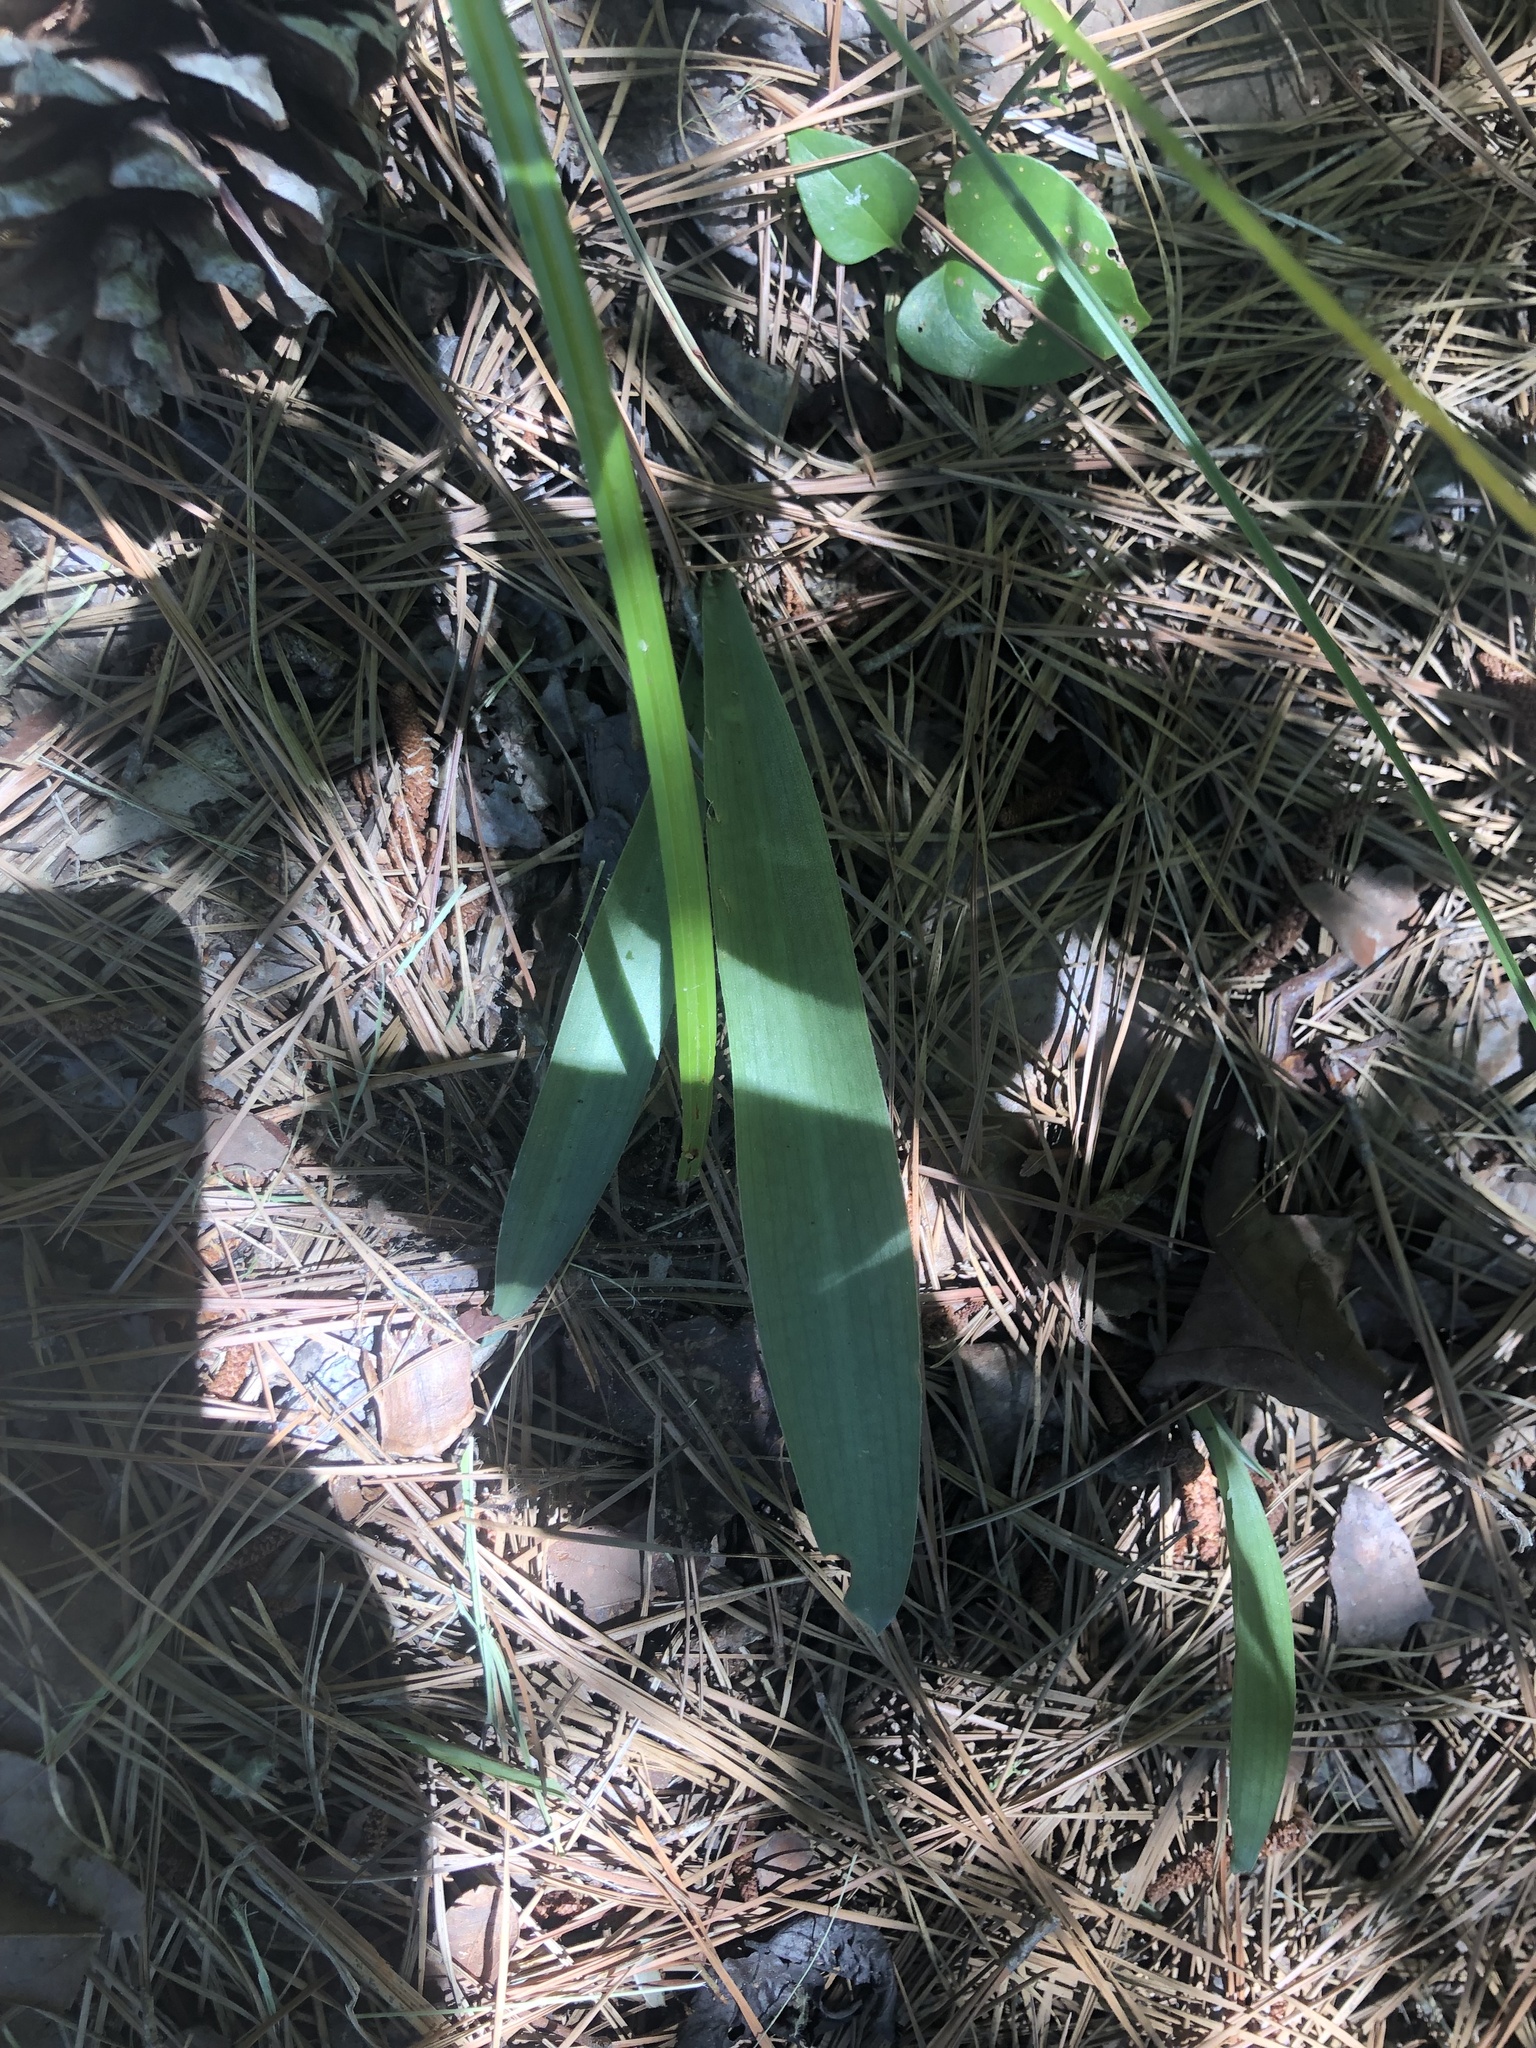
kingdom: Plantae
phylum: Tracheophyta
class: Liliopsida
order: Asparagales
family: Asparagaceae
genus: Agave
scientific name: Agave virginica
